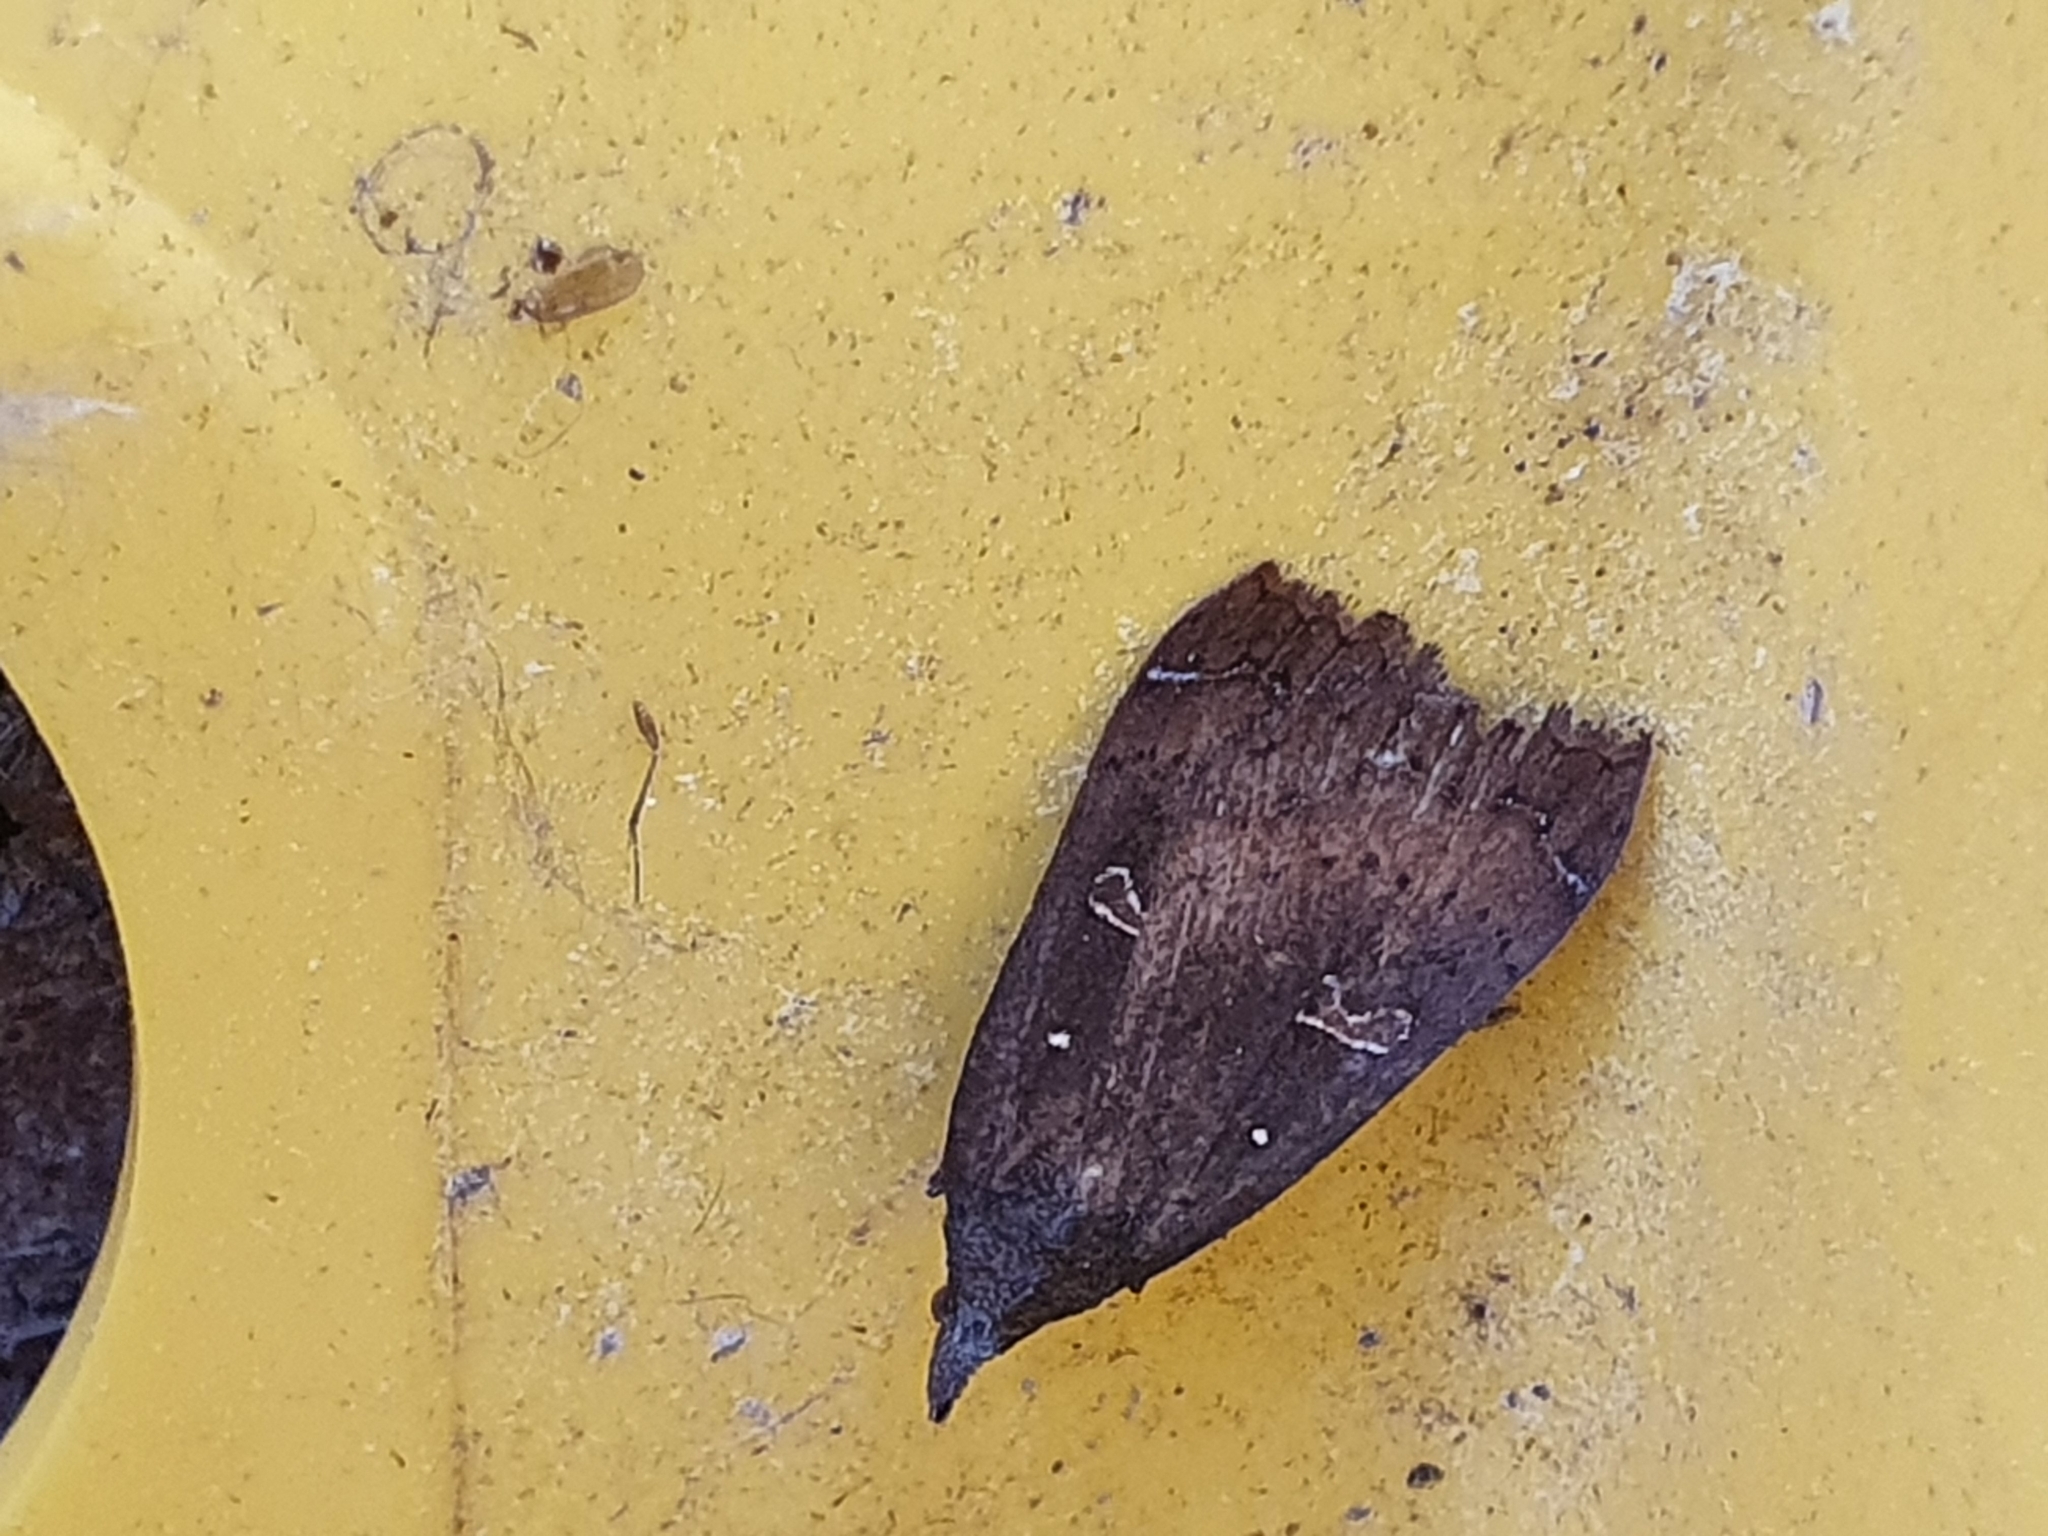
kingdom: Animalia
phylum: Arthropoda
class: Insecta
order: Lepidoptera
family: Erebidae
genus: Rhapsa
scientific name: Rhapsa scotosialis
